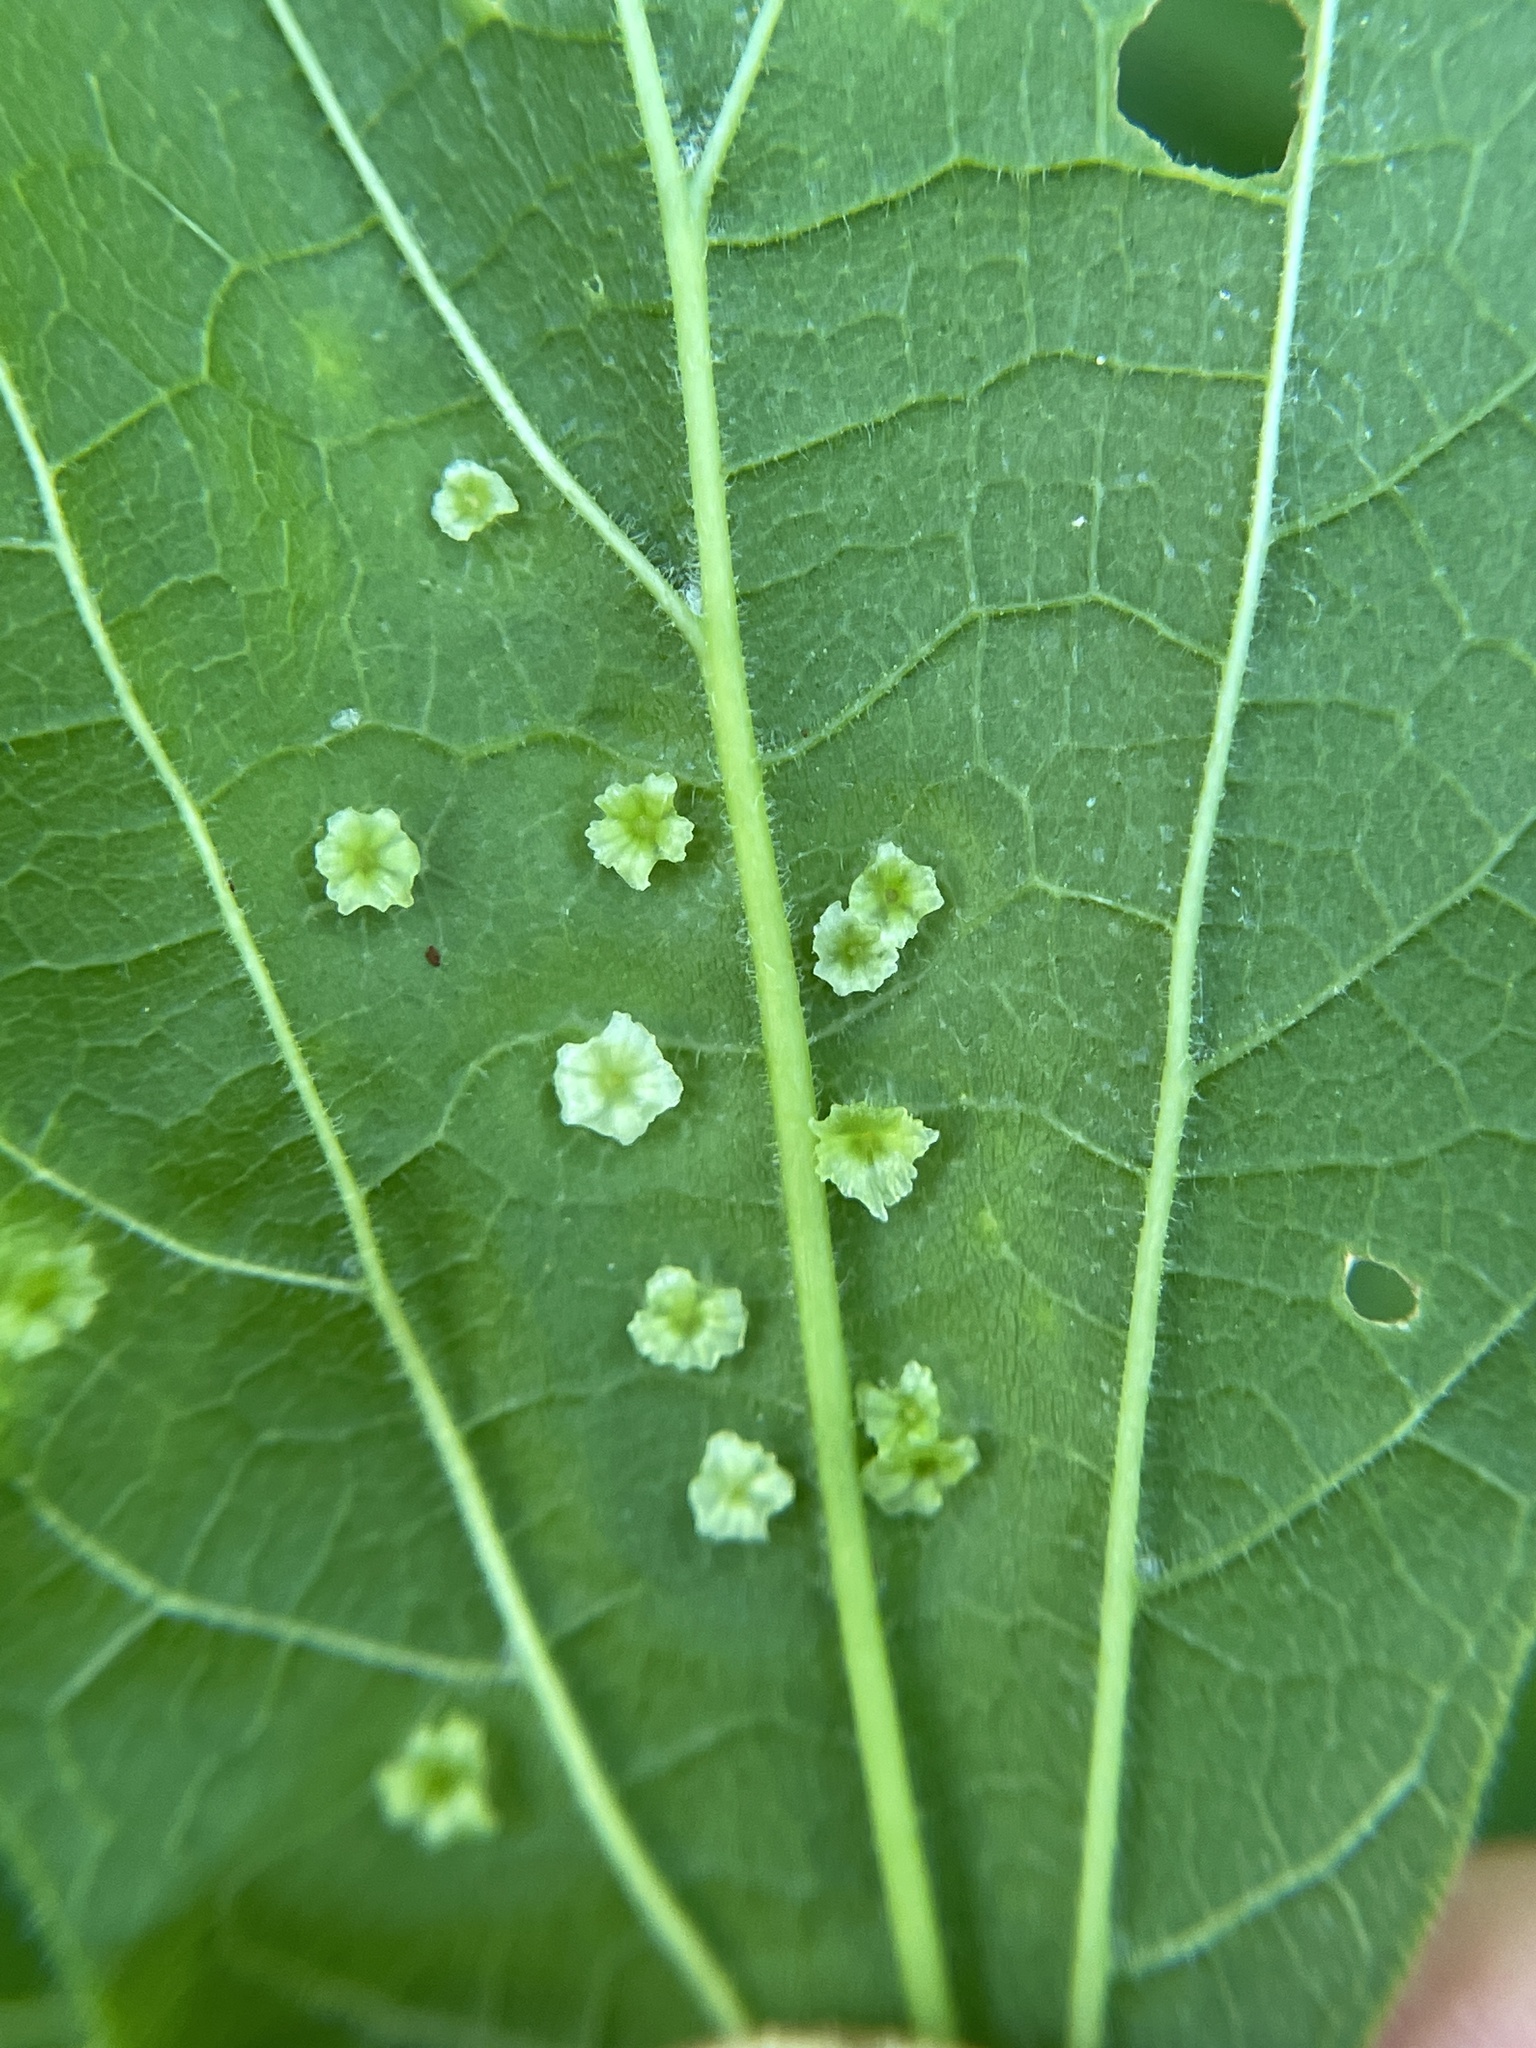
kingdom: Animalia
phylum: Arthropoda
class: Insecta
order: Hemiptera
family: Aphalaridae
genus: Pachypsylla
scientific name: Pachypsylla celtidisasterisca
